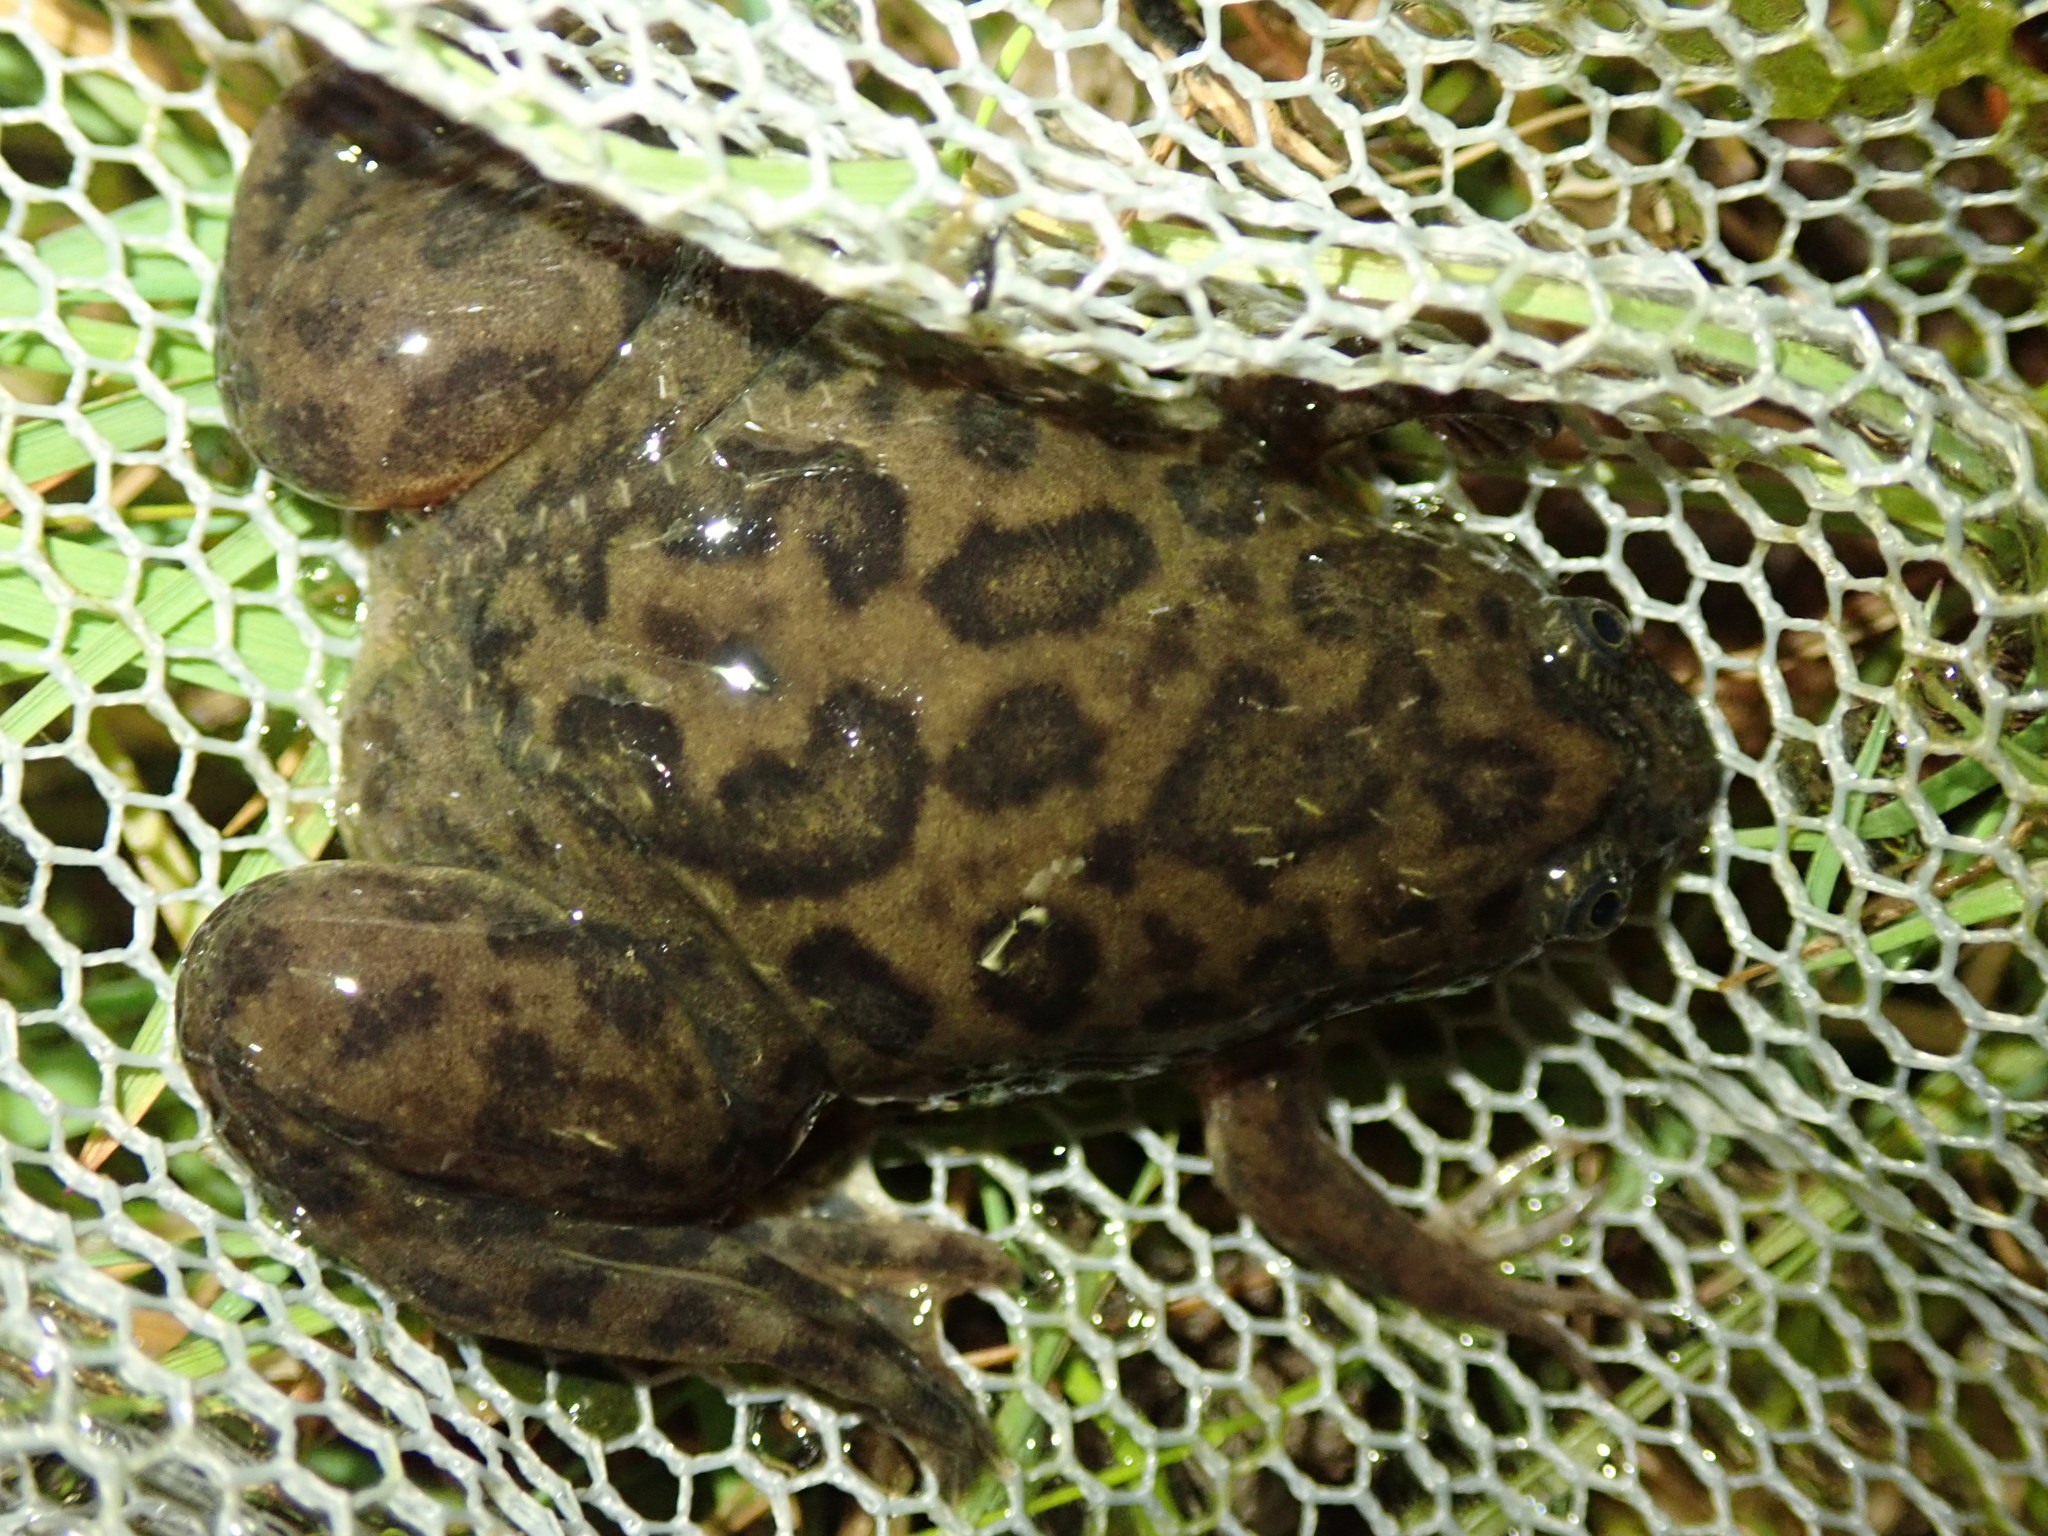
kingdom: Animalia
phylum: Chordata
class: Amphibia
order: Anura
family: Pipidae
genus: Xenopus
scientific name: Xenopus laevis
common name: African clawed frog
